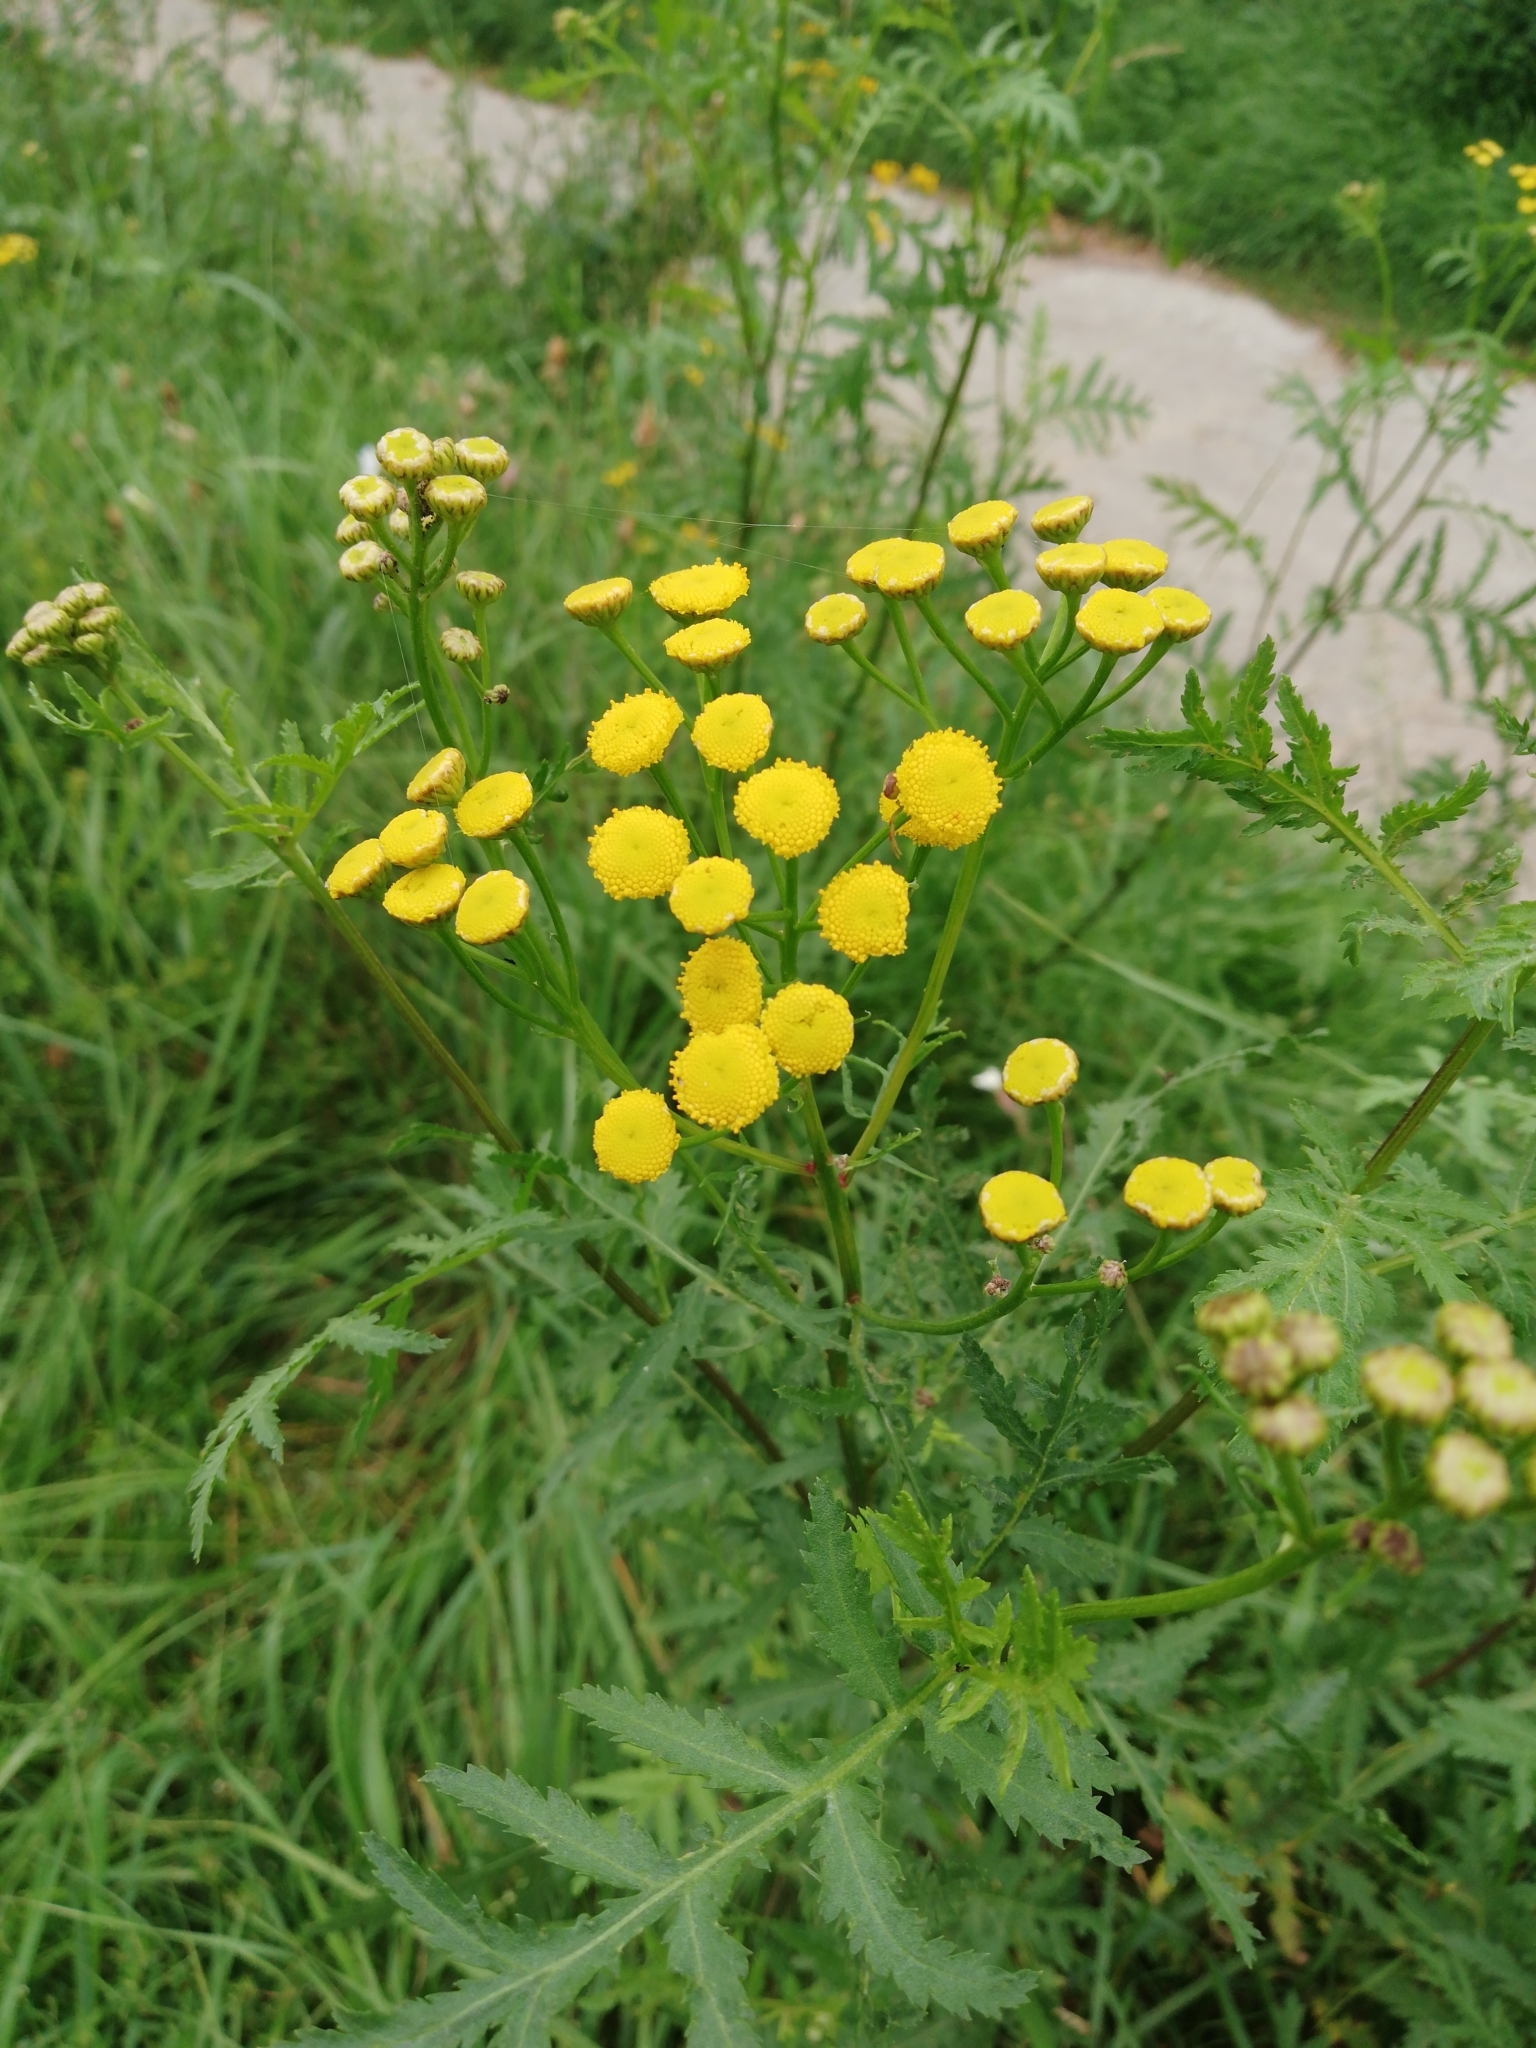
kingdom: Plantae
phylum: Tracheophyta
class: Magnoliopsida
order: Asterales
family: Asteraceae
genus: Tanacetum
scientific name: Tanacetum vulgare
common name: Common tansy
